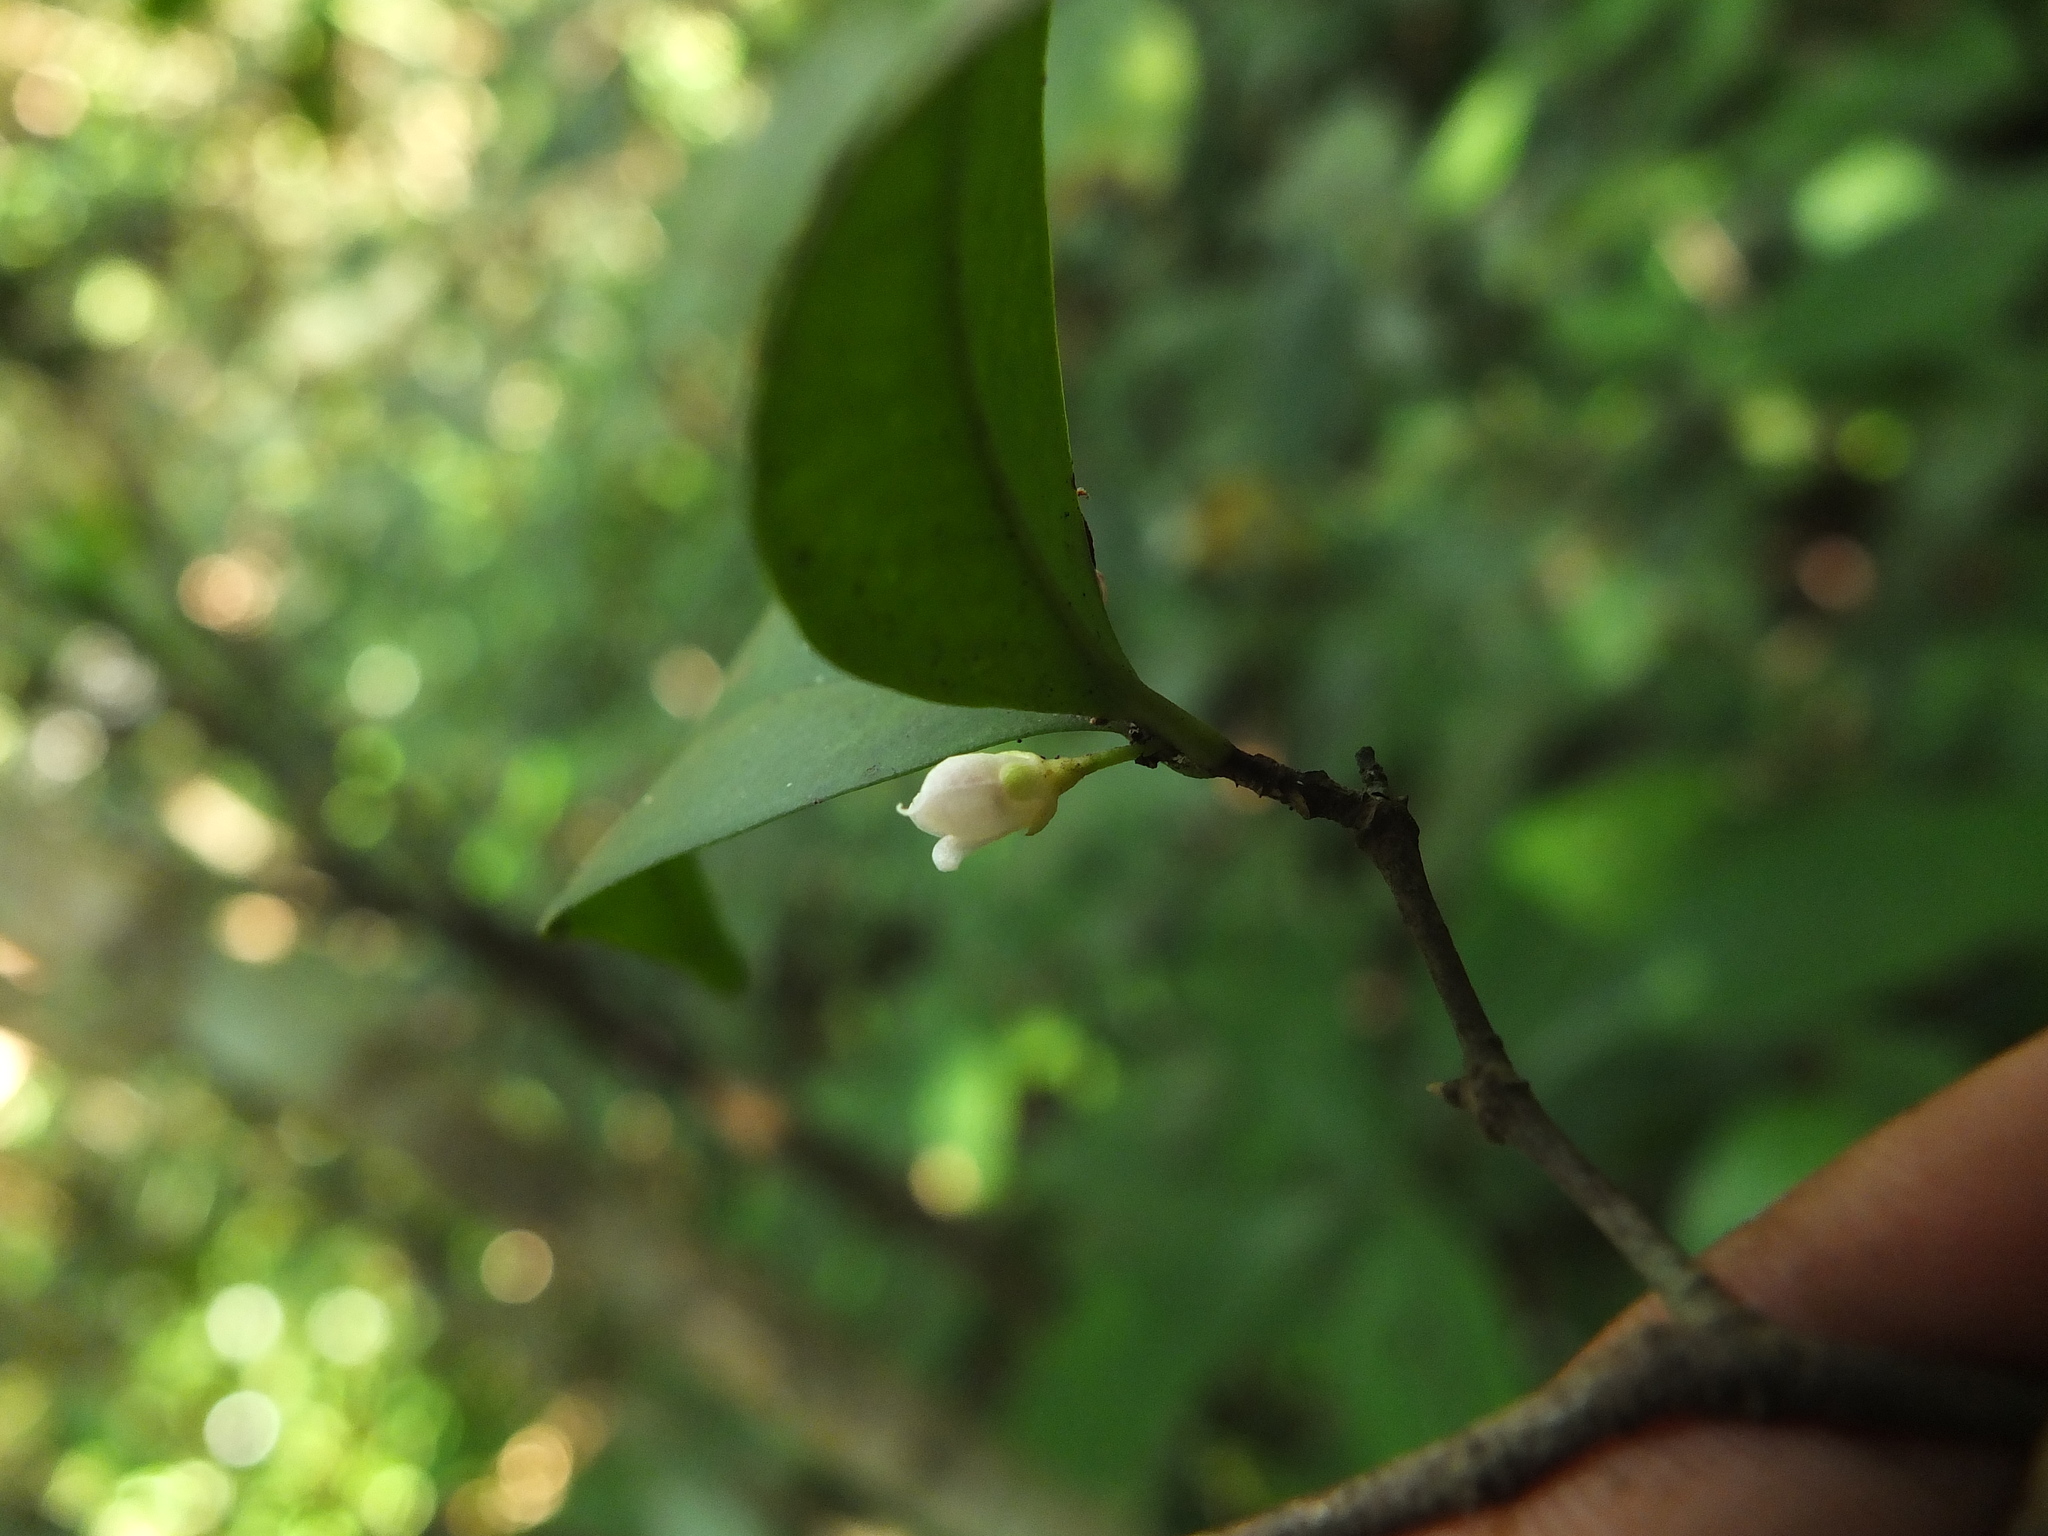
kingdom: Plantae
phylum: Tracheophyta
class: Magnoliopsida
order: Myrtales
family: Myrtaceae
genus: Eugenia
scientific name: Eugenia phillyraeoides
